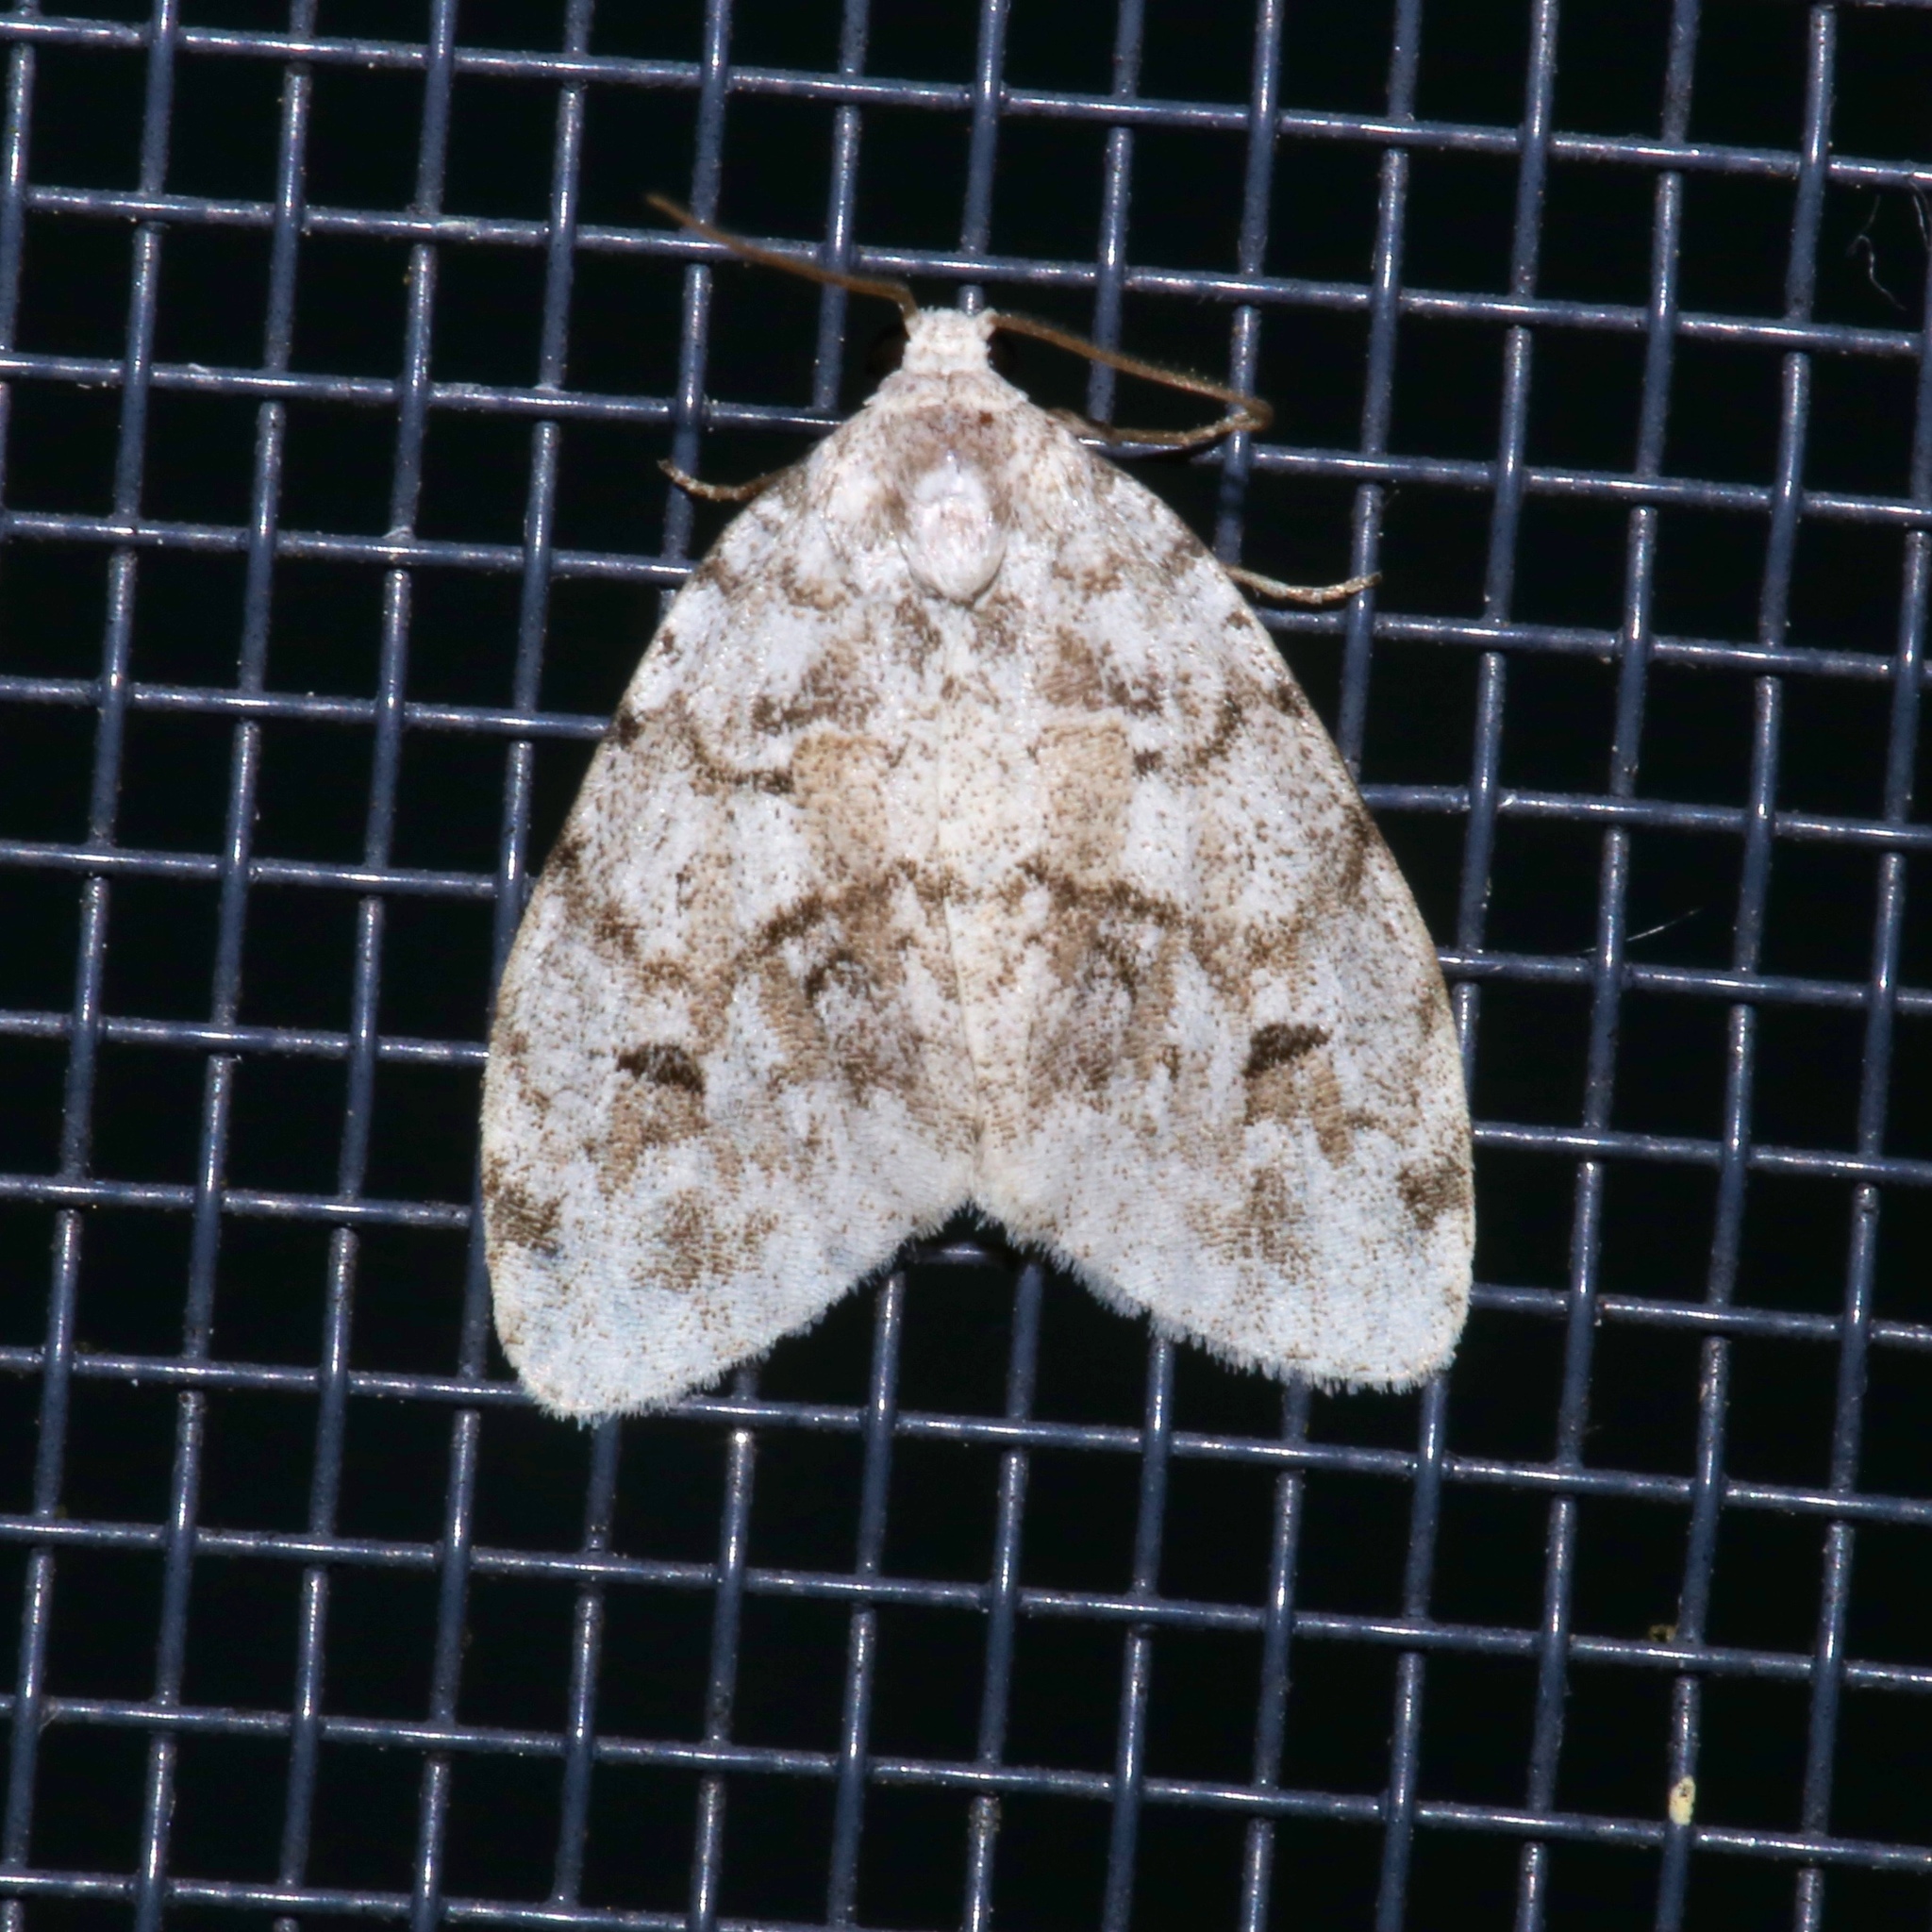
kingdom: Animalia
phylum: Arthropoda
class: Insecta
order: Lepidoptera
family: Erebidae
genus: Clemensia
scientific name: Clemensia albata
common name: Little white lichen moth
